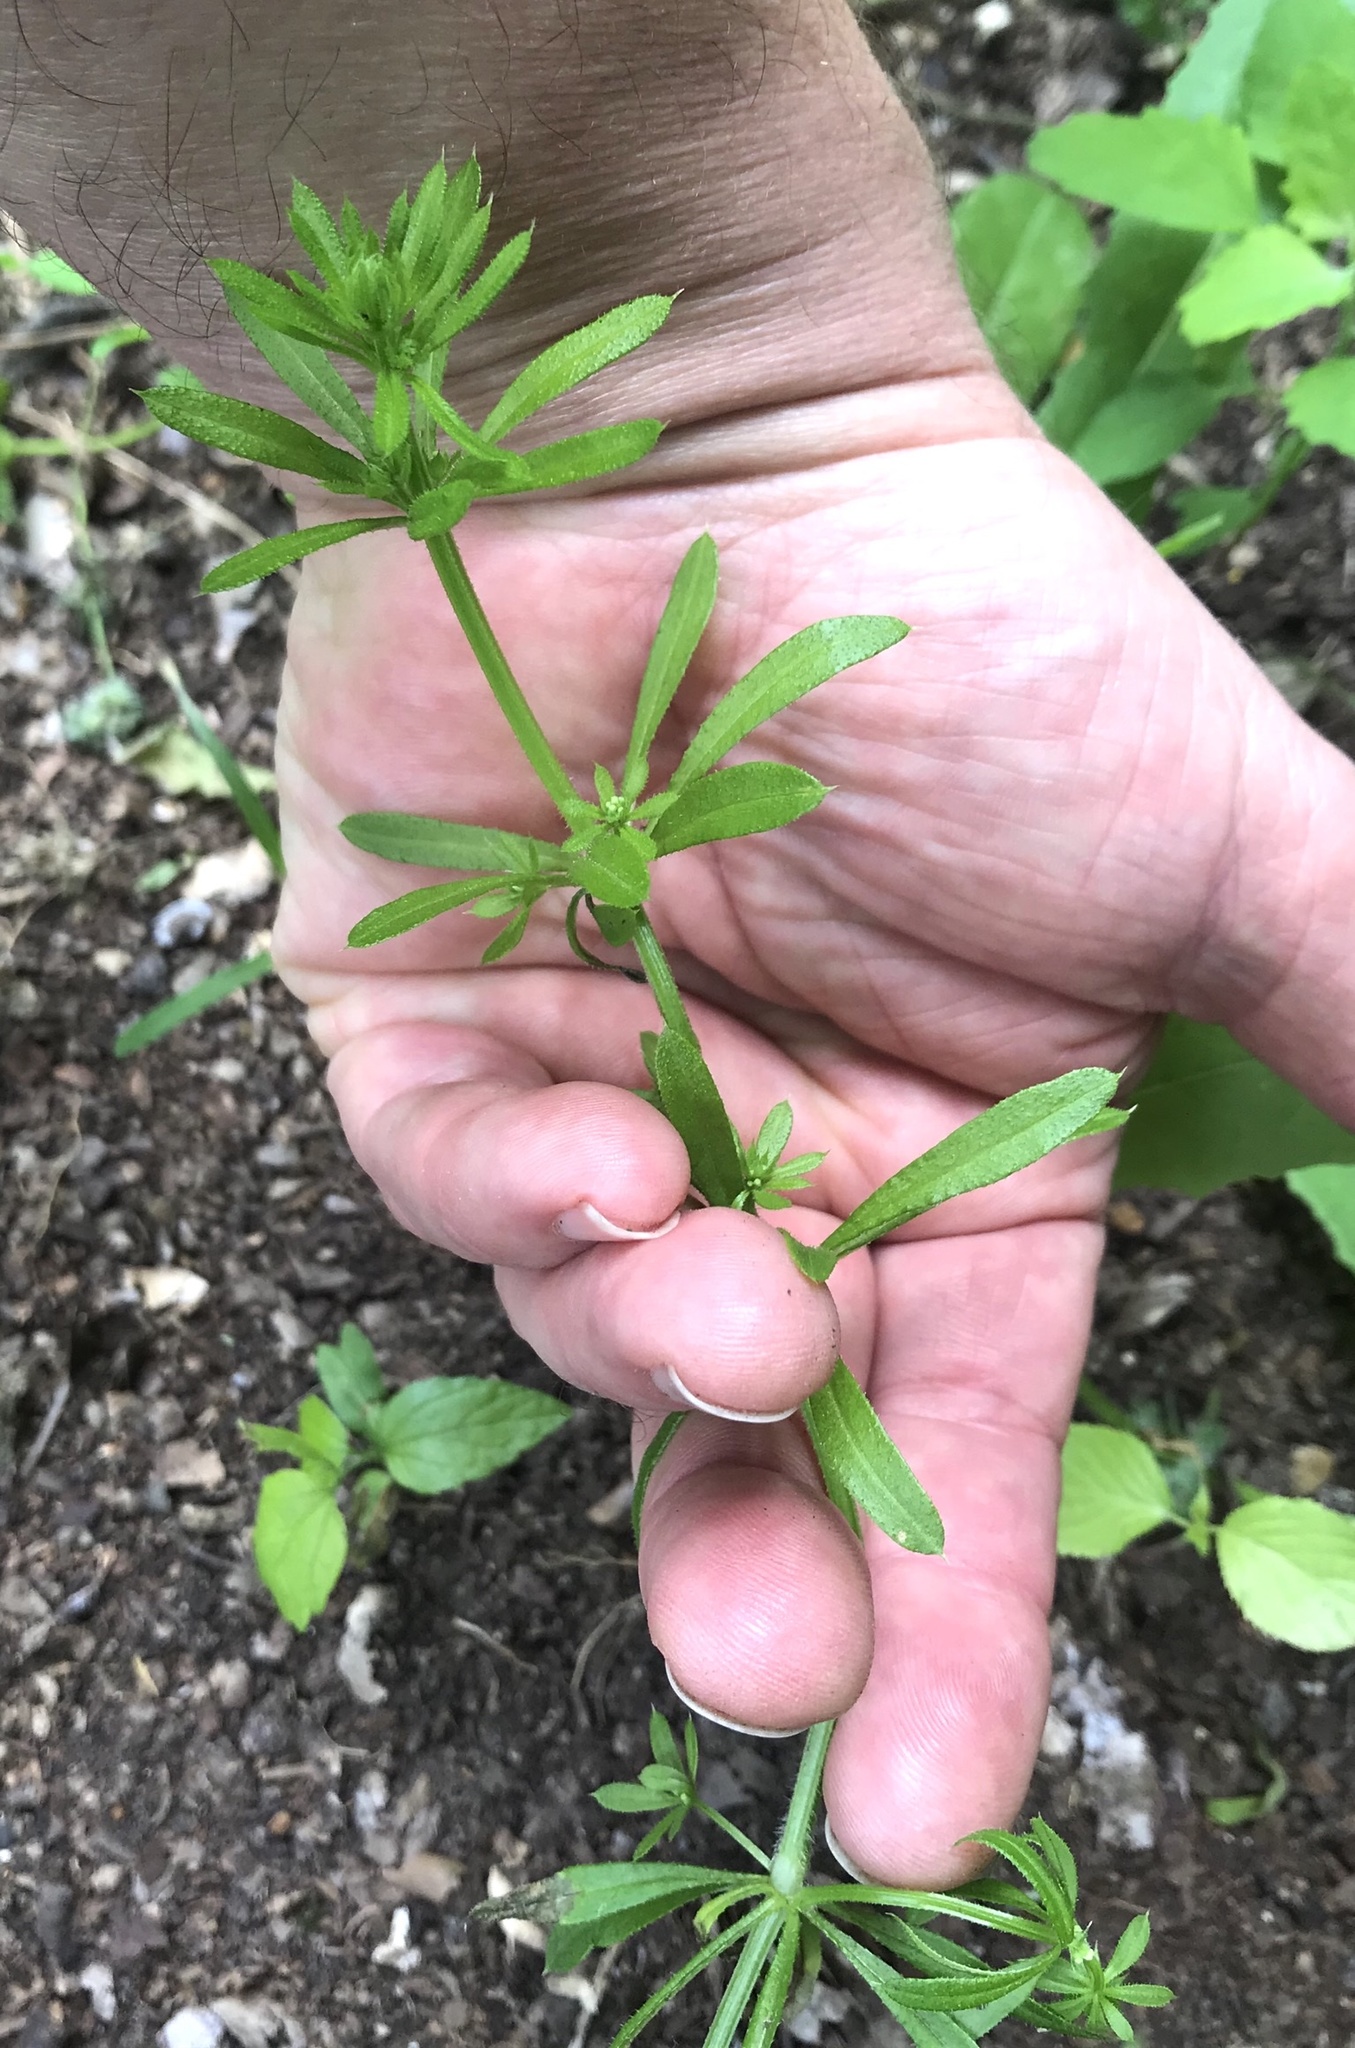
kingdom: Plantae
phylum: Tracheophyta
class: Magnoliopsida
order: Gentianales
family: Rubiaceae
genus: Galium
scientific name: Galium aparine
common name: Cleavers
